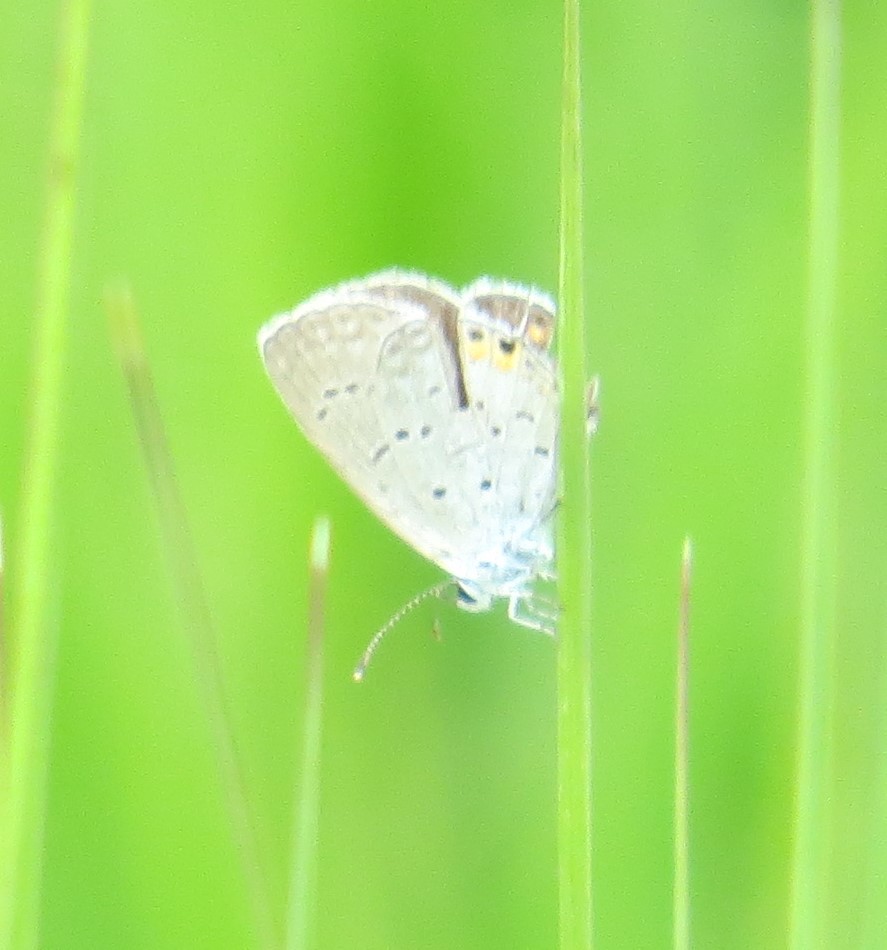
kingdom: Animalia
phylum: Arthropoda
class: Insecta
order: Lepidoptera
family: Lycaenidae
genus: Elkalyce
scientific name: Elkalyce comyntas
